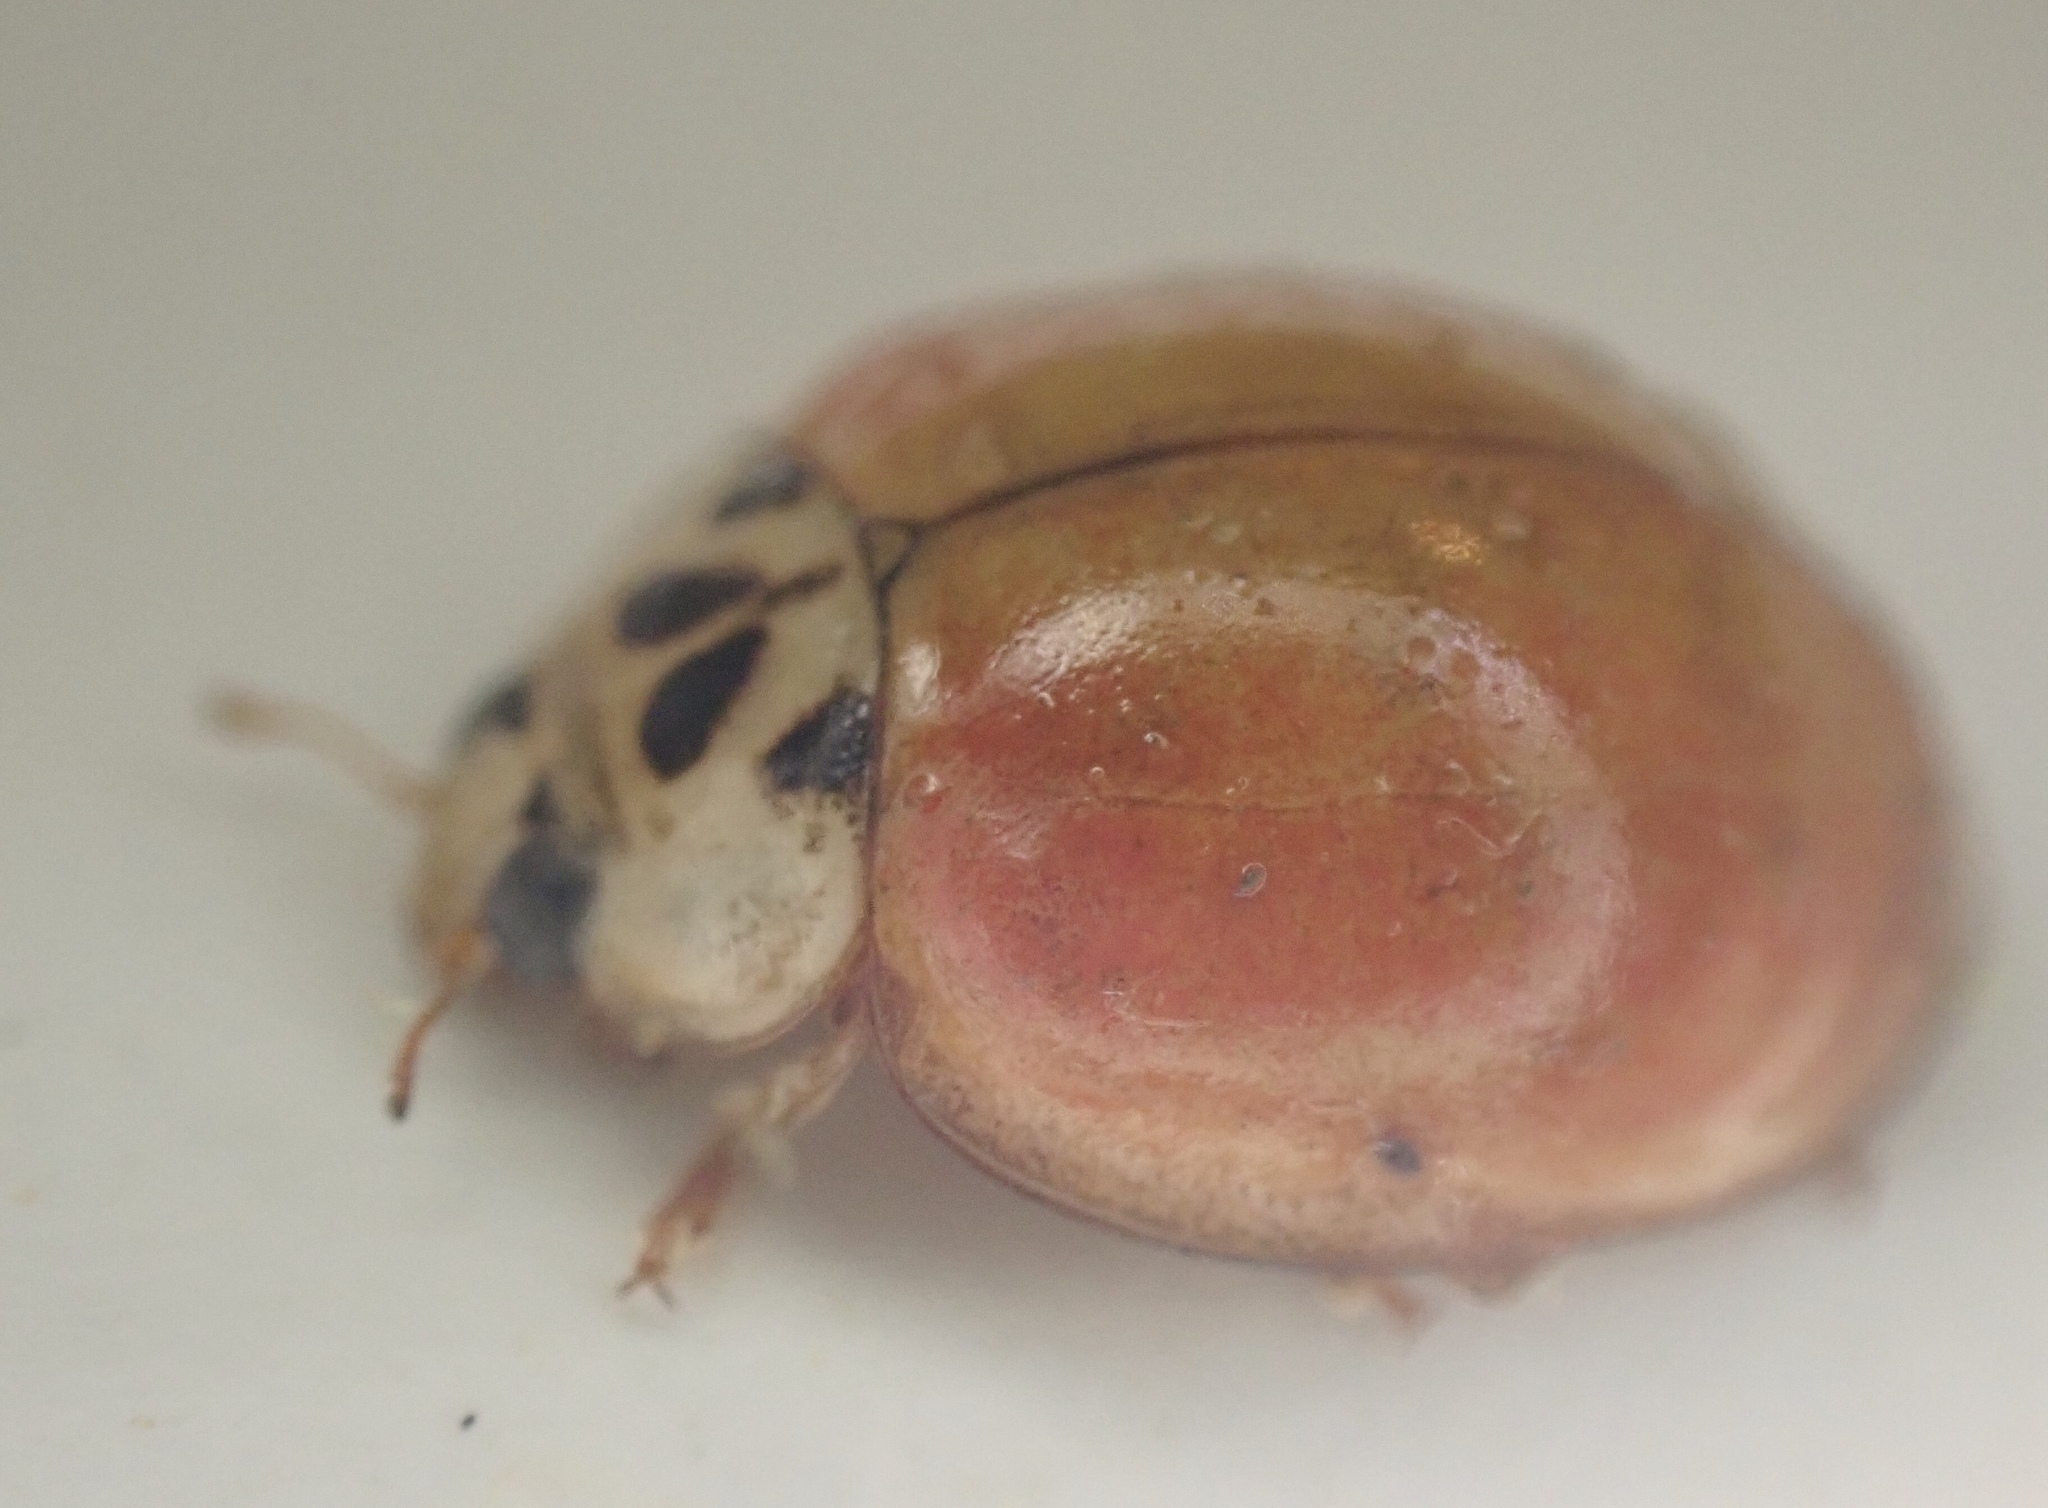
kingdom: Animalia
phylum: Arthropoda
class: Insecta
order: Coleoptera
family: Coccinellidae
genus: Harmonia
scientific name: Harmonia axyridis
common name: Harlequin ladybird
